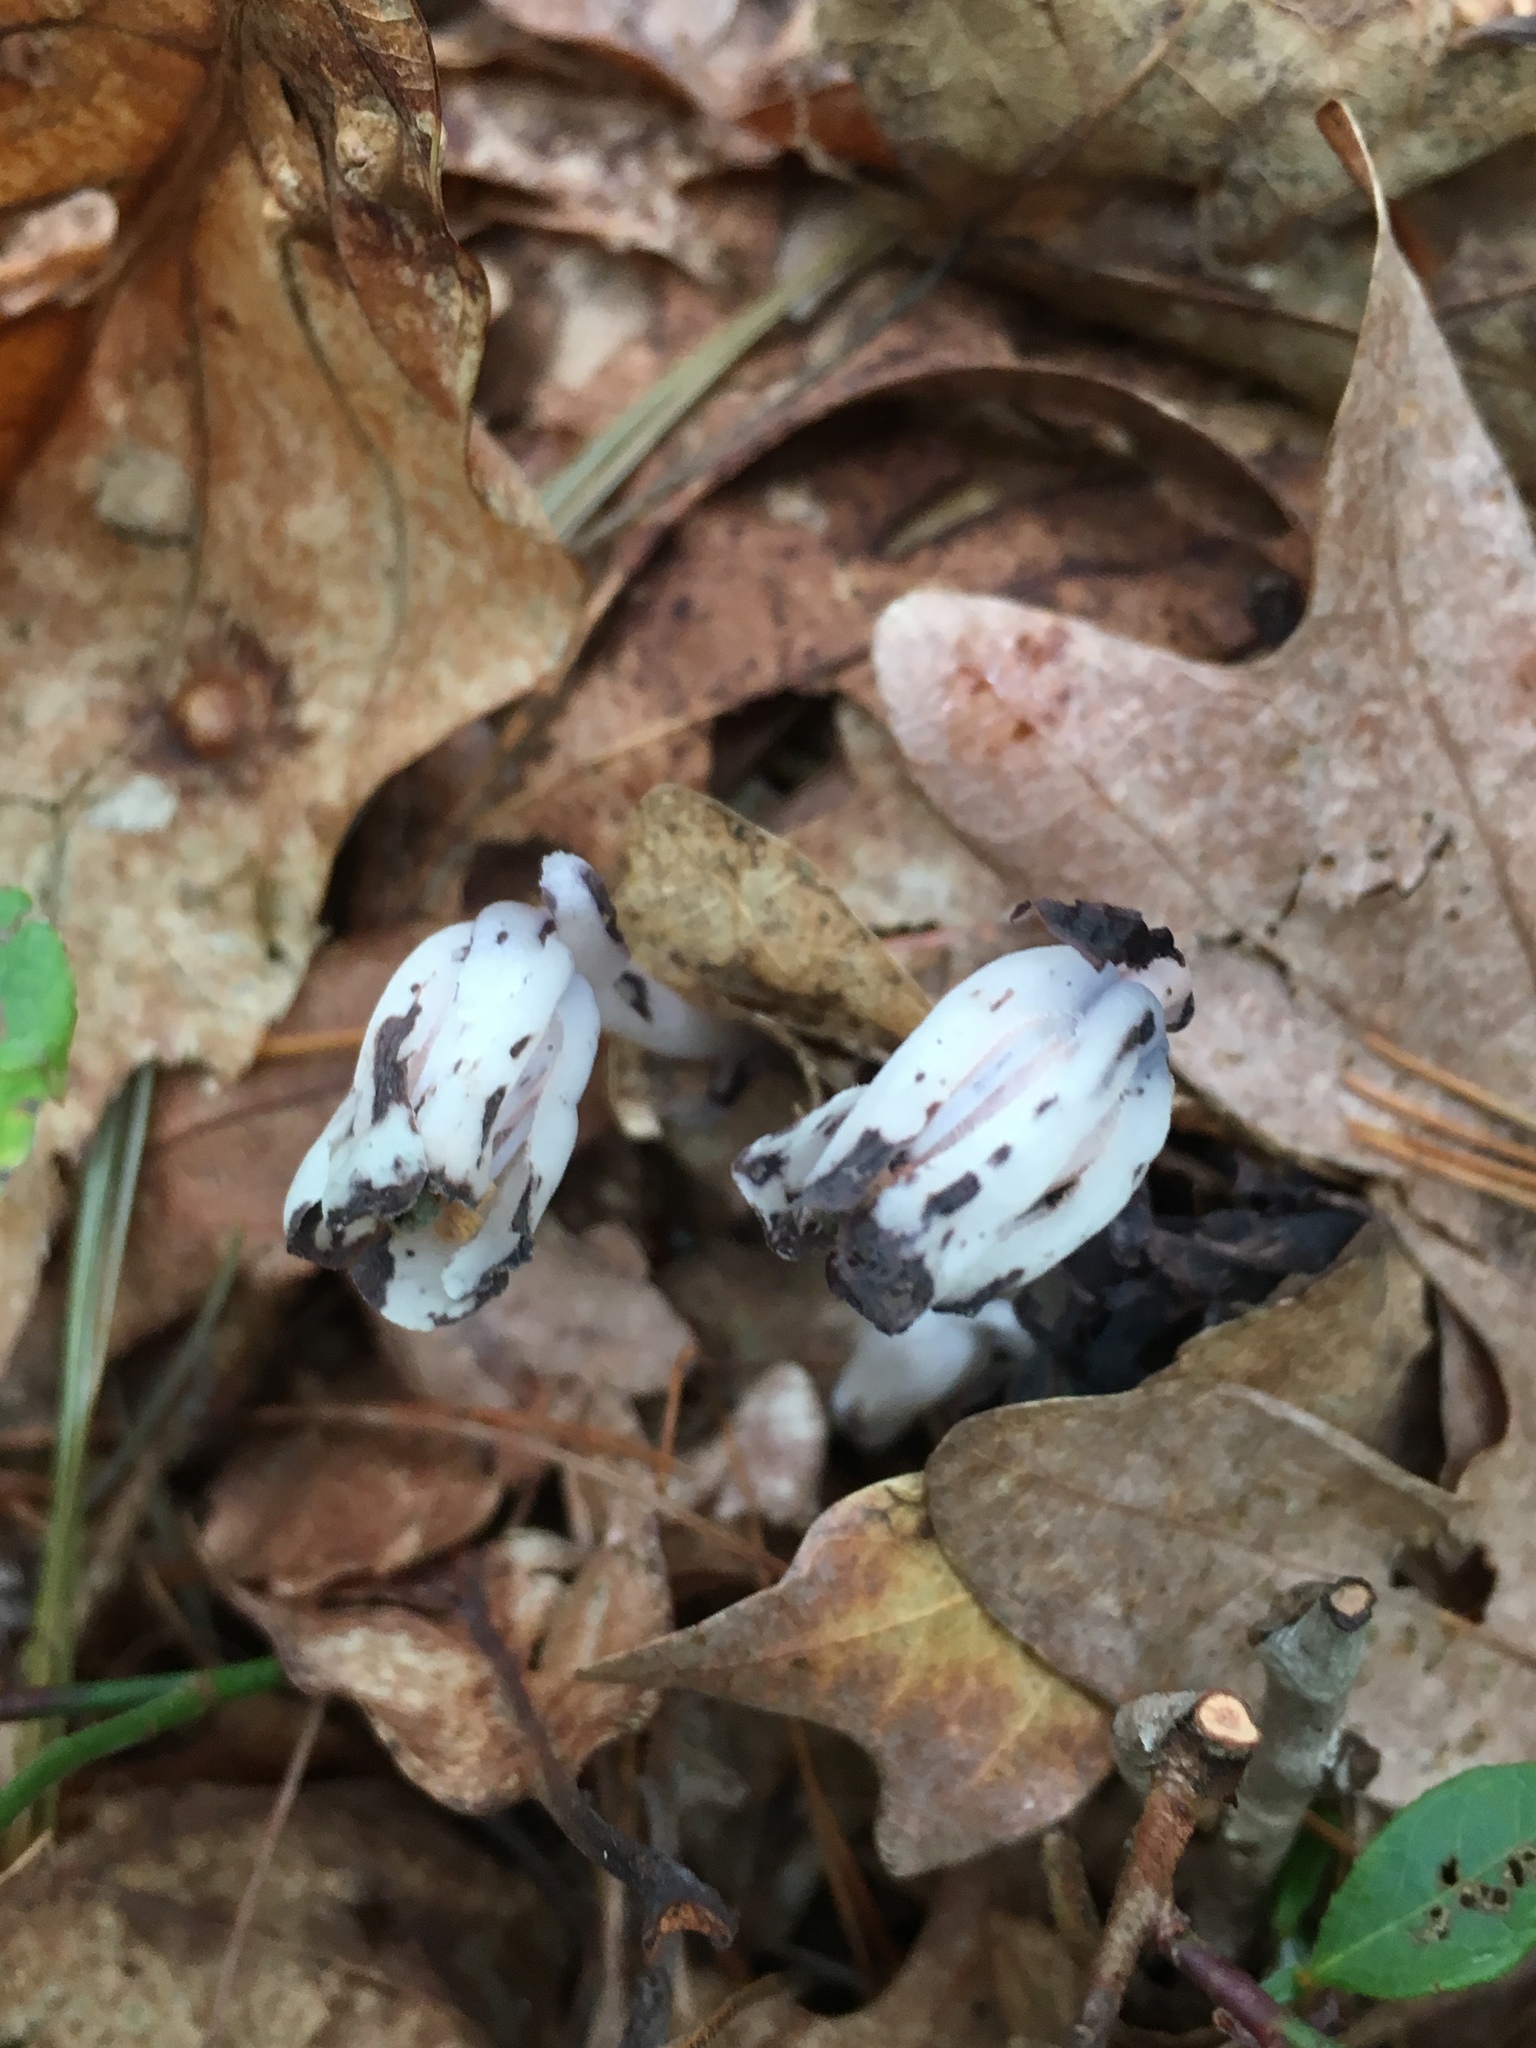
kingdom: Plantae
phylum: Tracheophyta
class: Magnoliopsida
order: Ericales
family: Ericaceae
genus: Monotropa
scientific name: Monotropa uniflora
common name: Convulsion root
